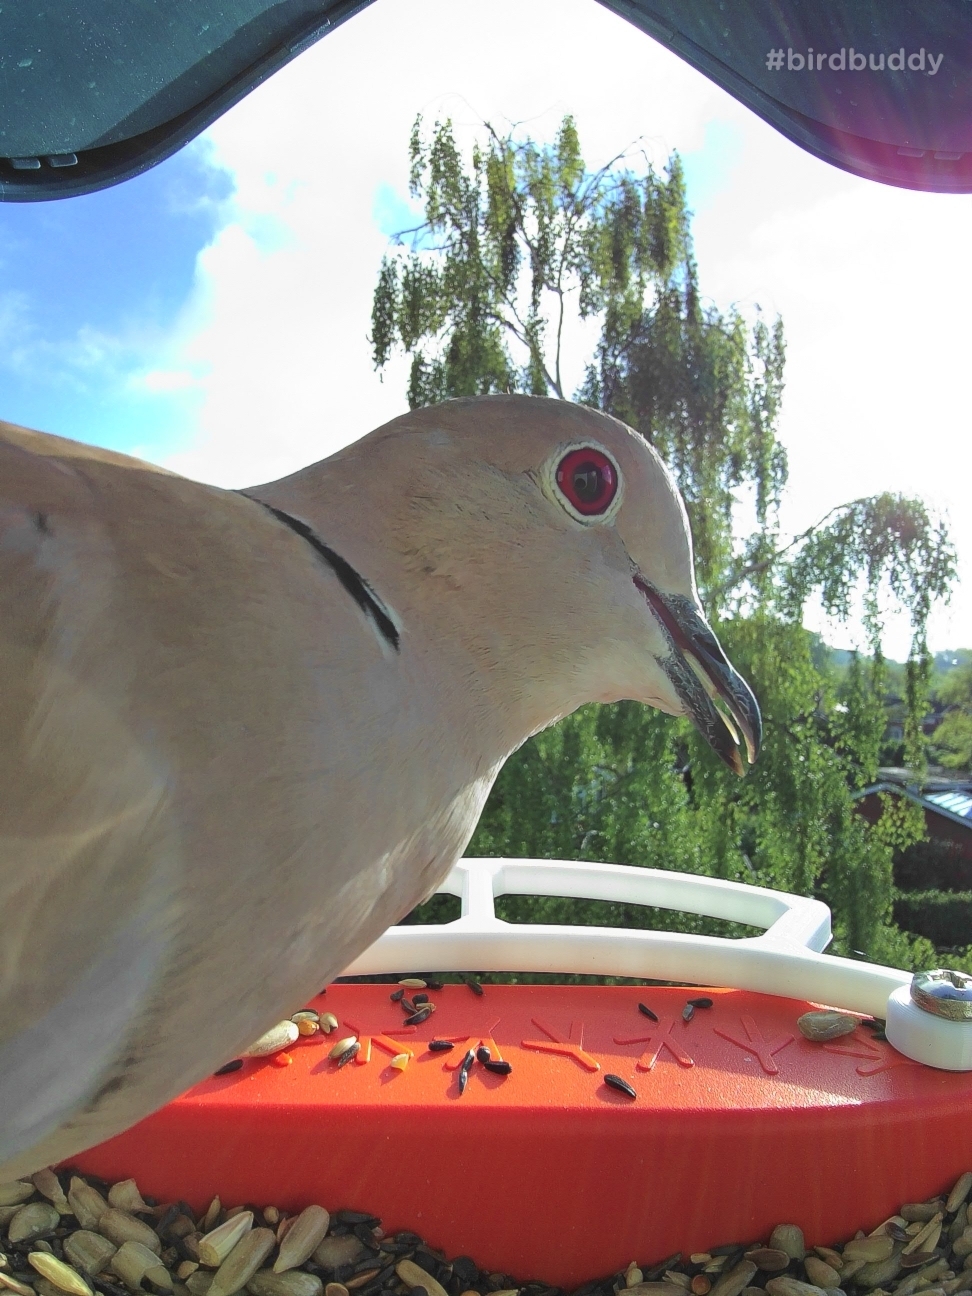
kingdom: Animalia
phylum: Chordata
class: Aves
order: Columbiformes
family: Columbidae
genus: Streptopelia
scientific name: Streptopelia decaocto
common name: Eurasian collared dove
